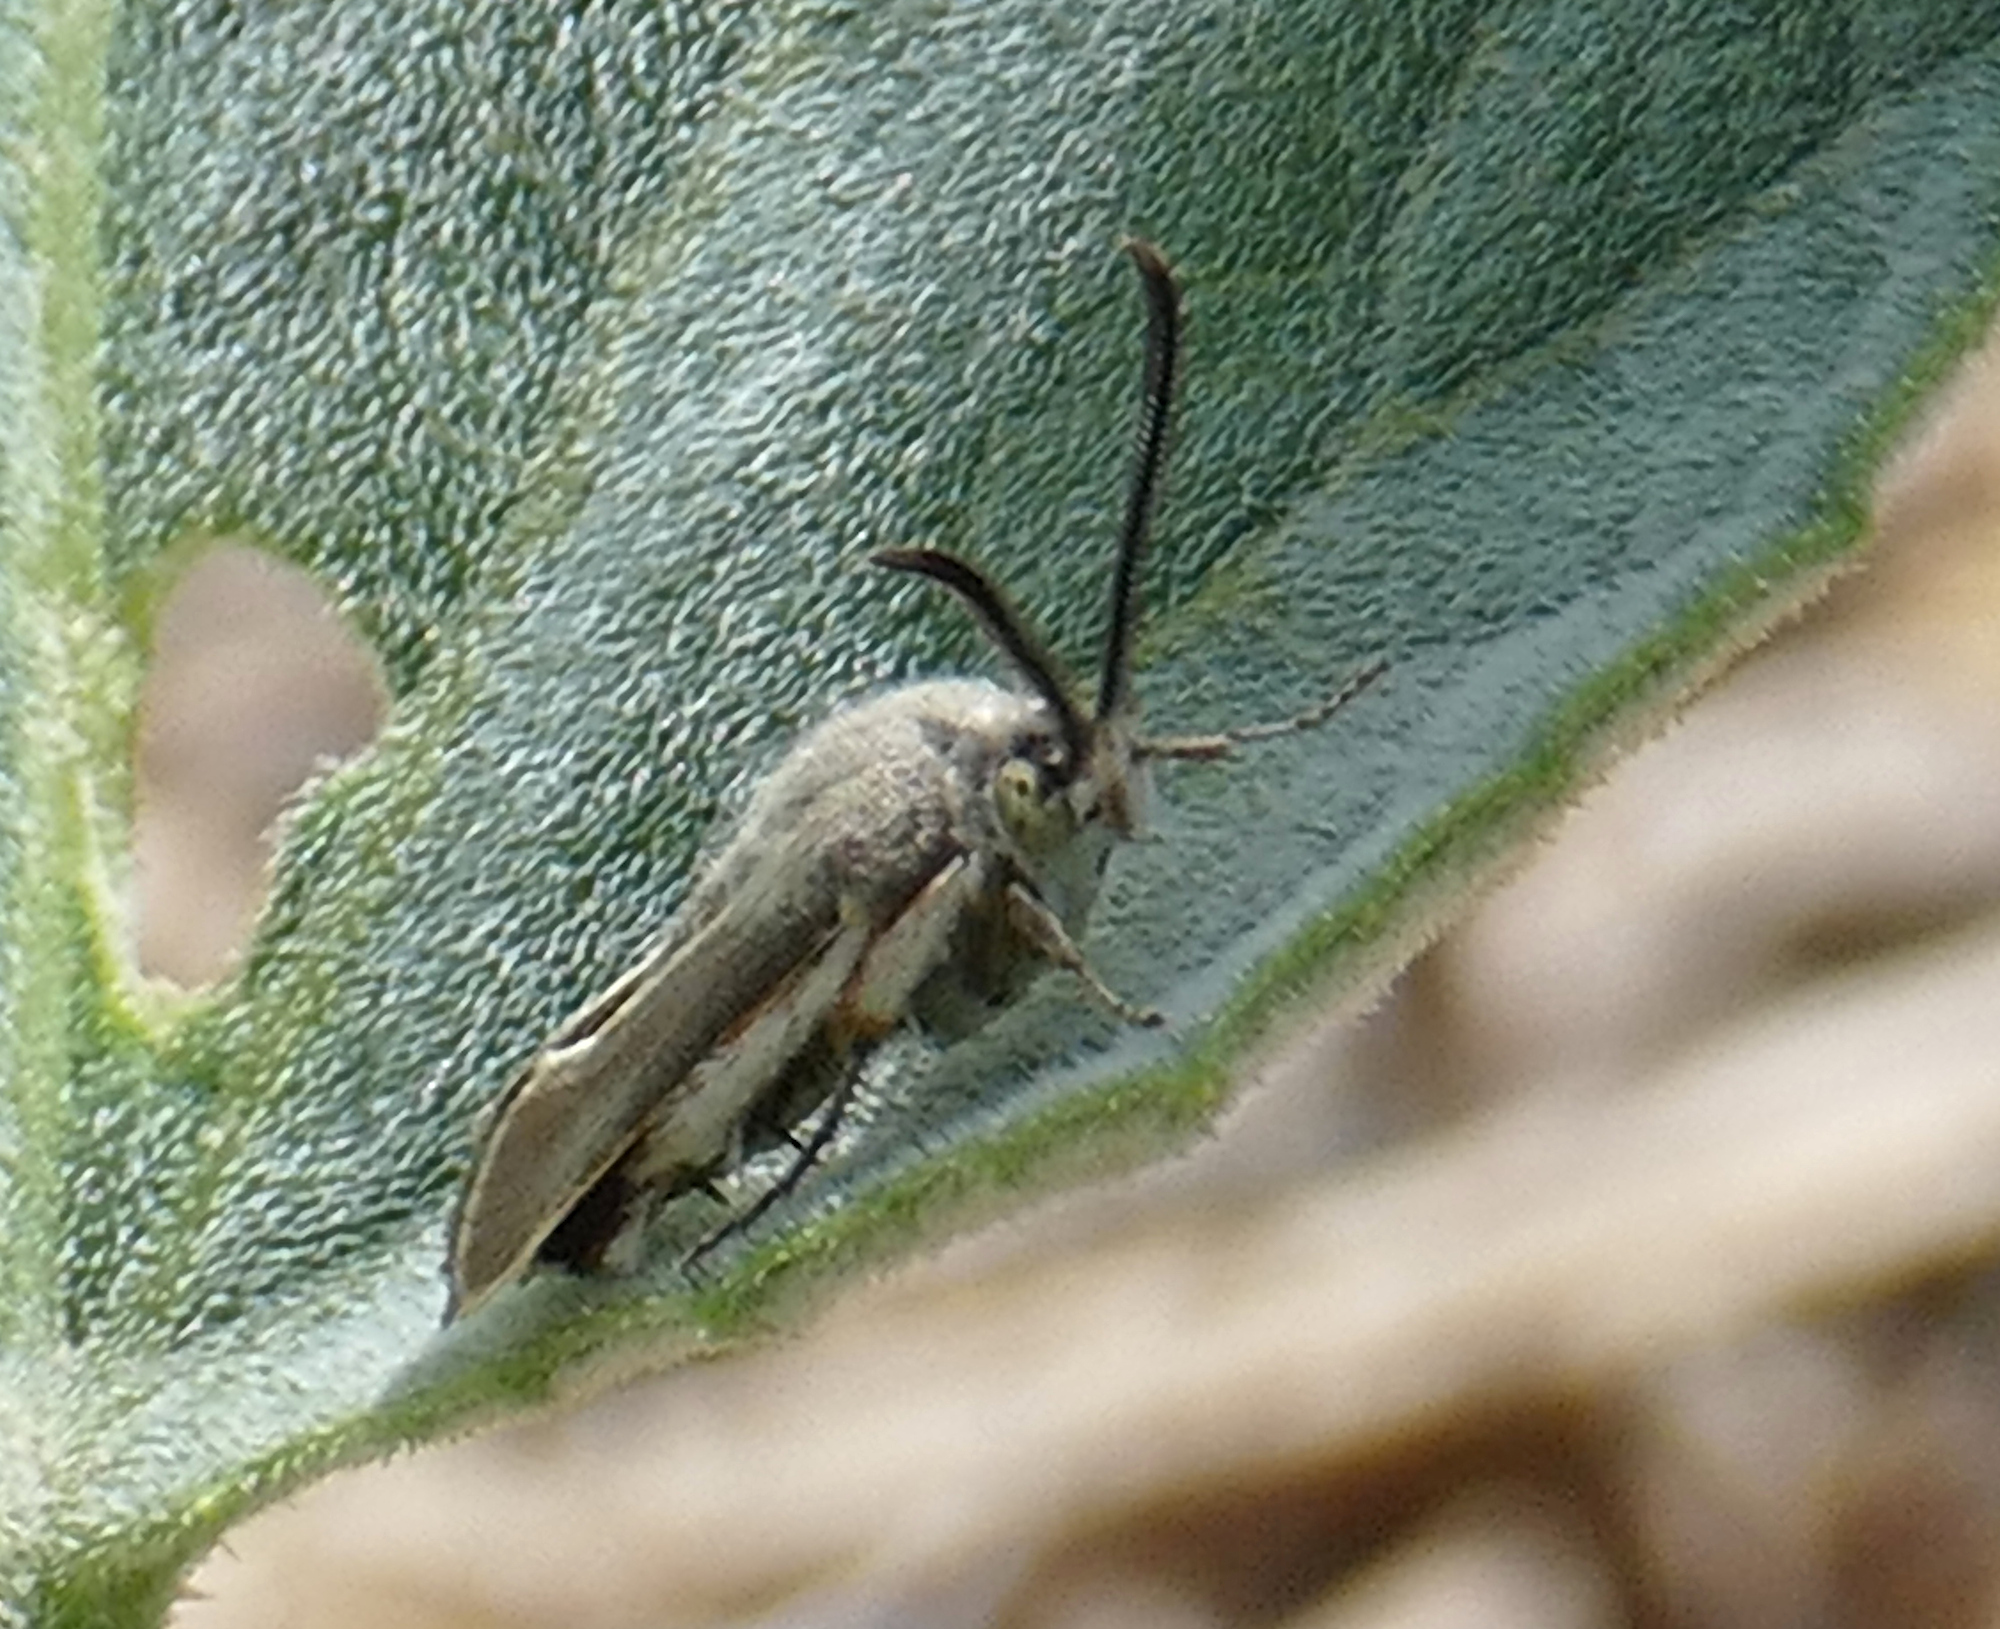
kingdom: Animalia
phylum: Arthropoda
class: Insecta
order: Lepidoptera
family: Sesiidae
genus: Eichlinia
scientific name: Eichlinia snowii
